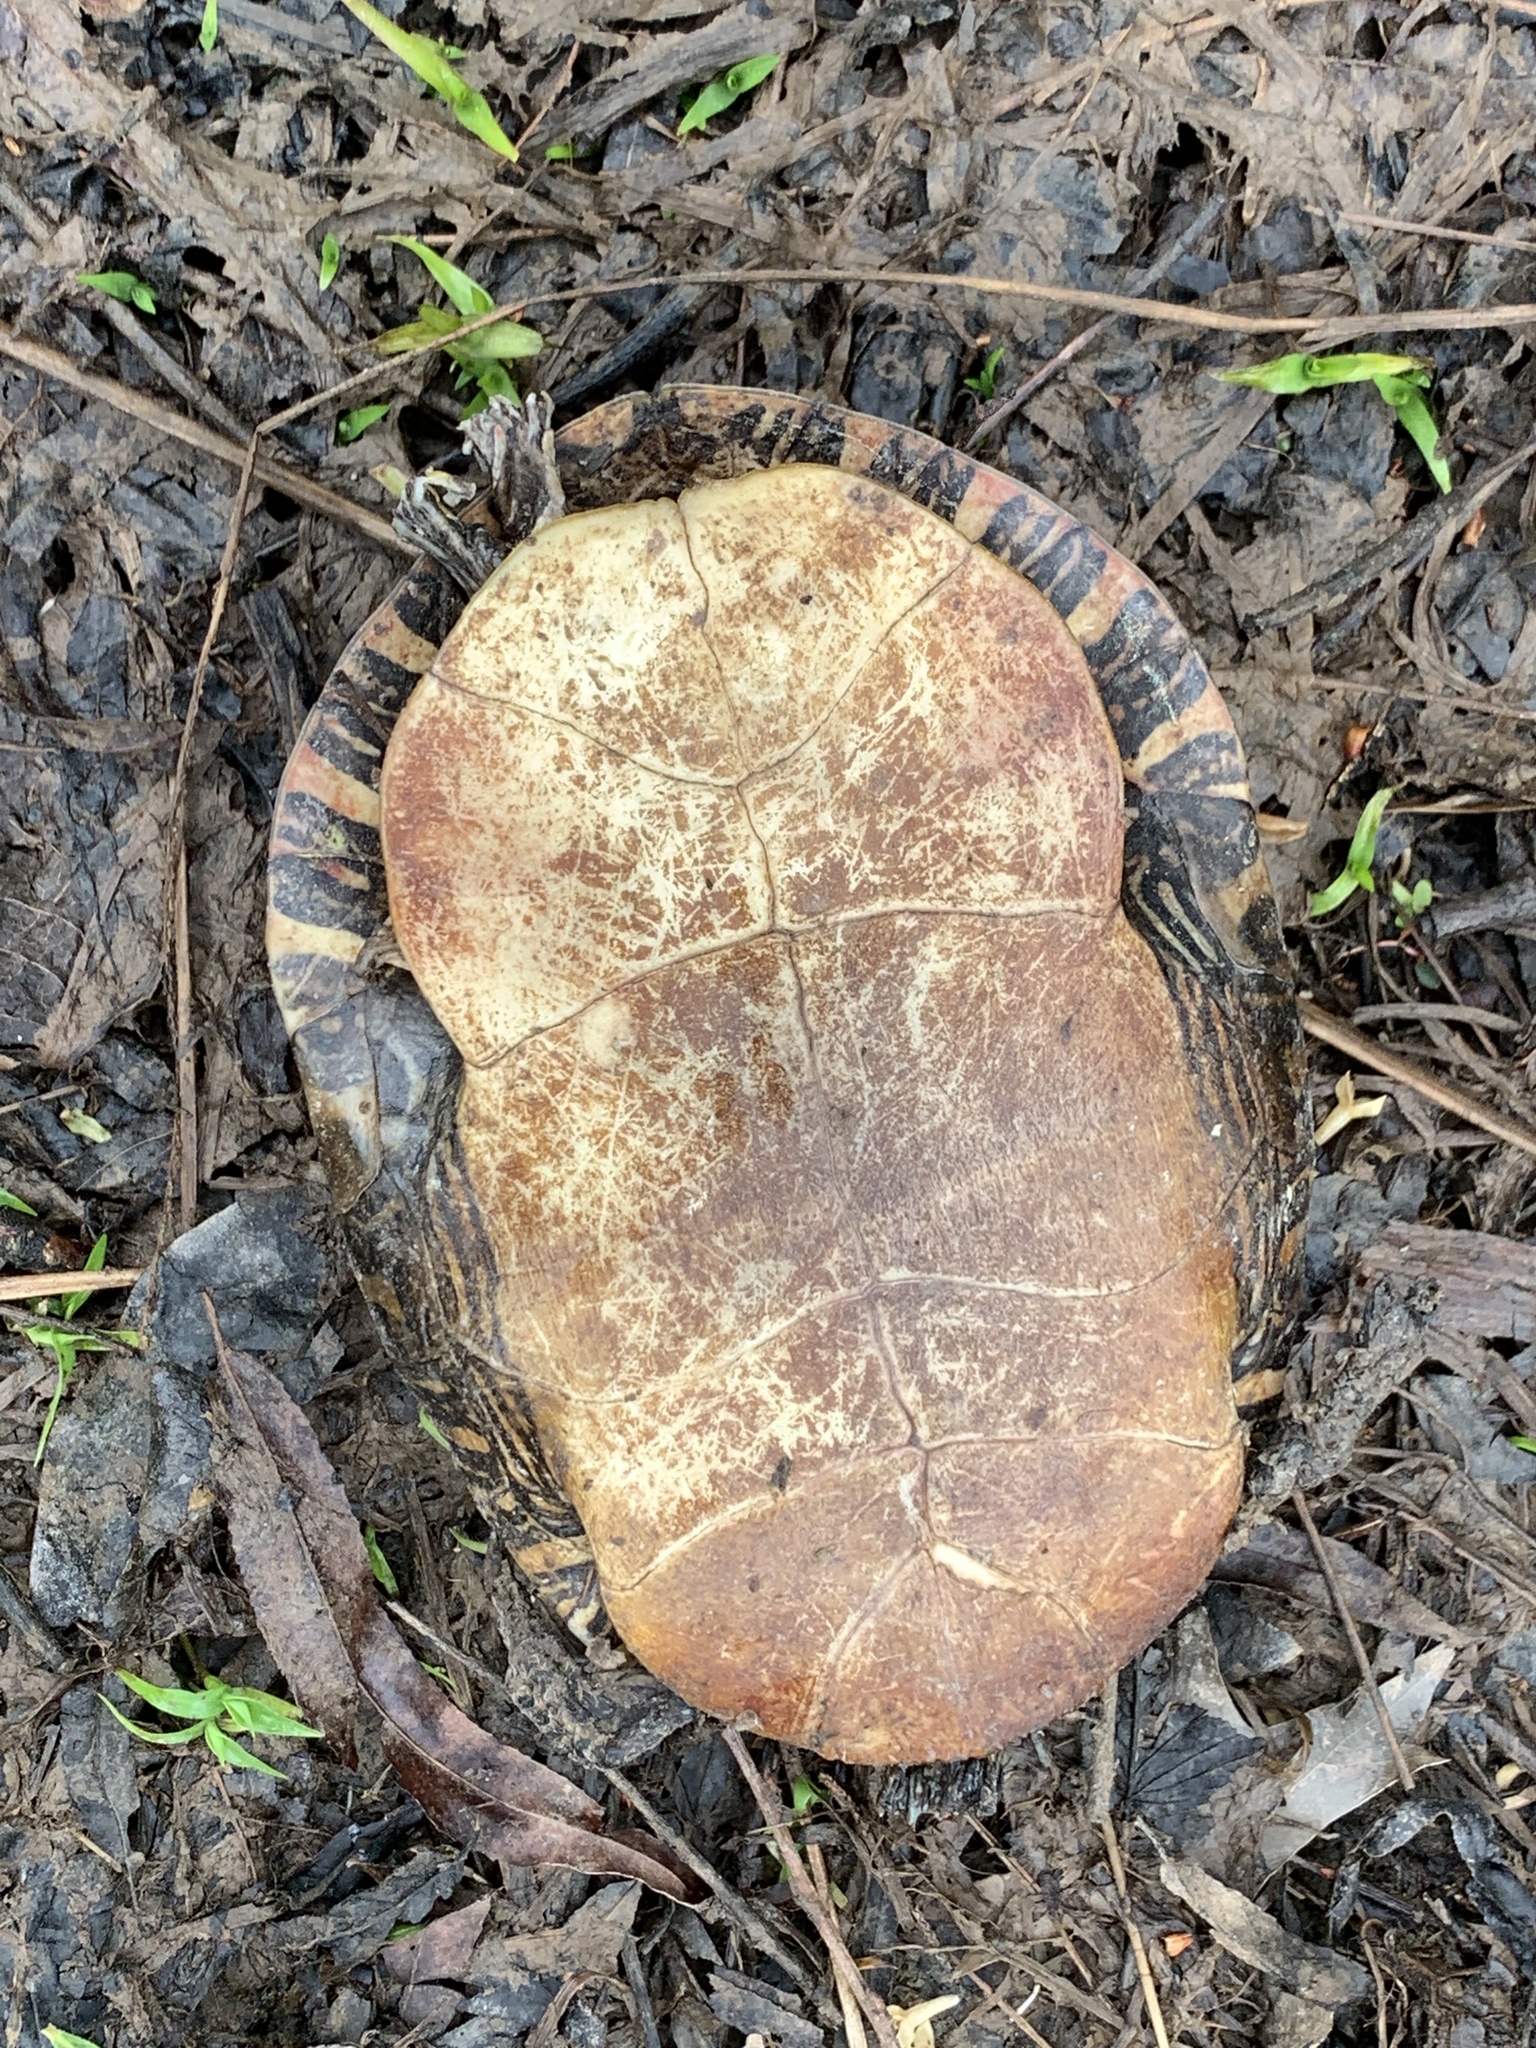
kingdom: Animalia
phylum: Chordata
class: Testudines
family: Emydidae
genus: Chrysemys
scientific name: Chrysemys picta
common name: Painted turtle
